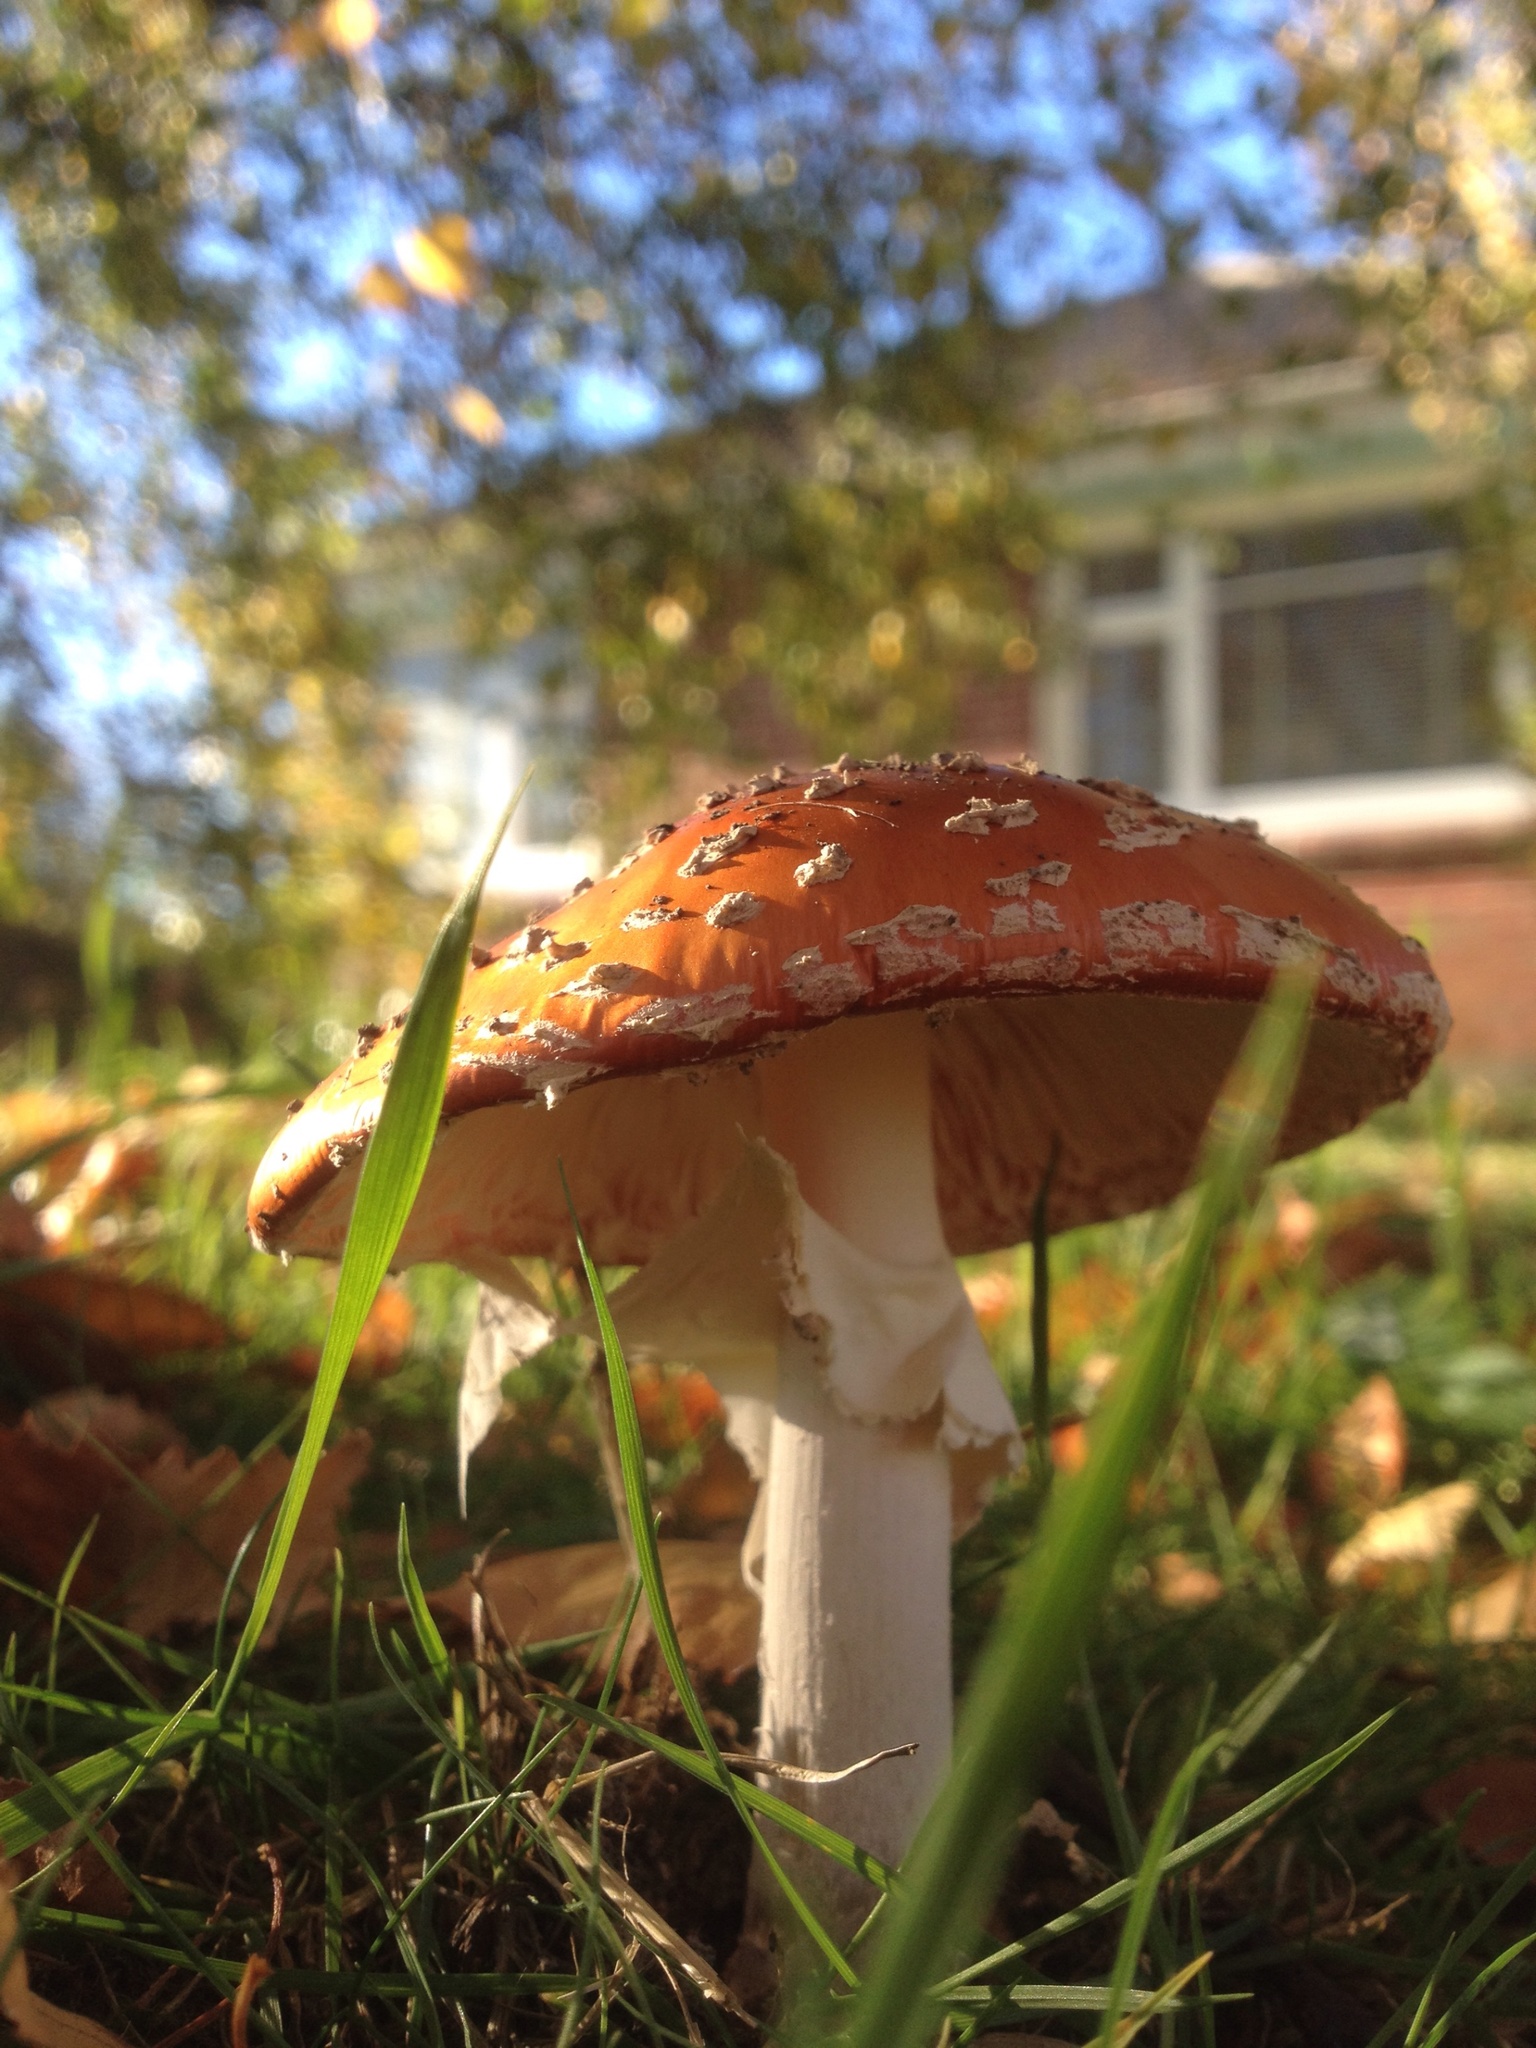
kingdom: Fungi
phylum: Basidiomycota
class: Agaricomycetes
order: Agaricales
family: Amanitaceae
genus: Amanita
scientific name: Amanita muscaria
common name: Fly agaric
